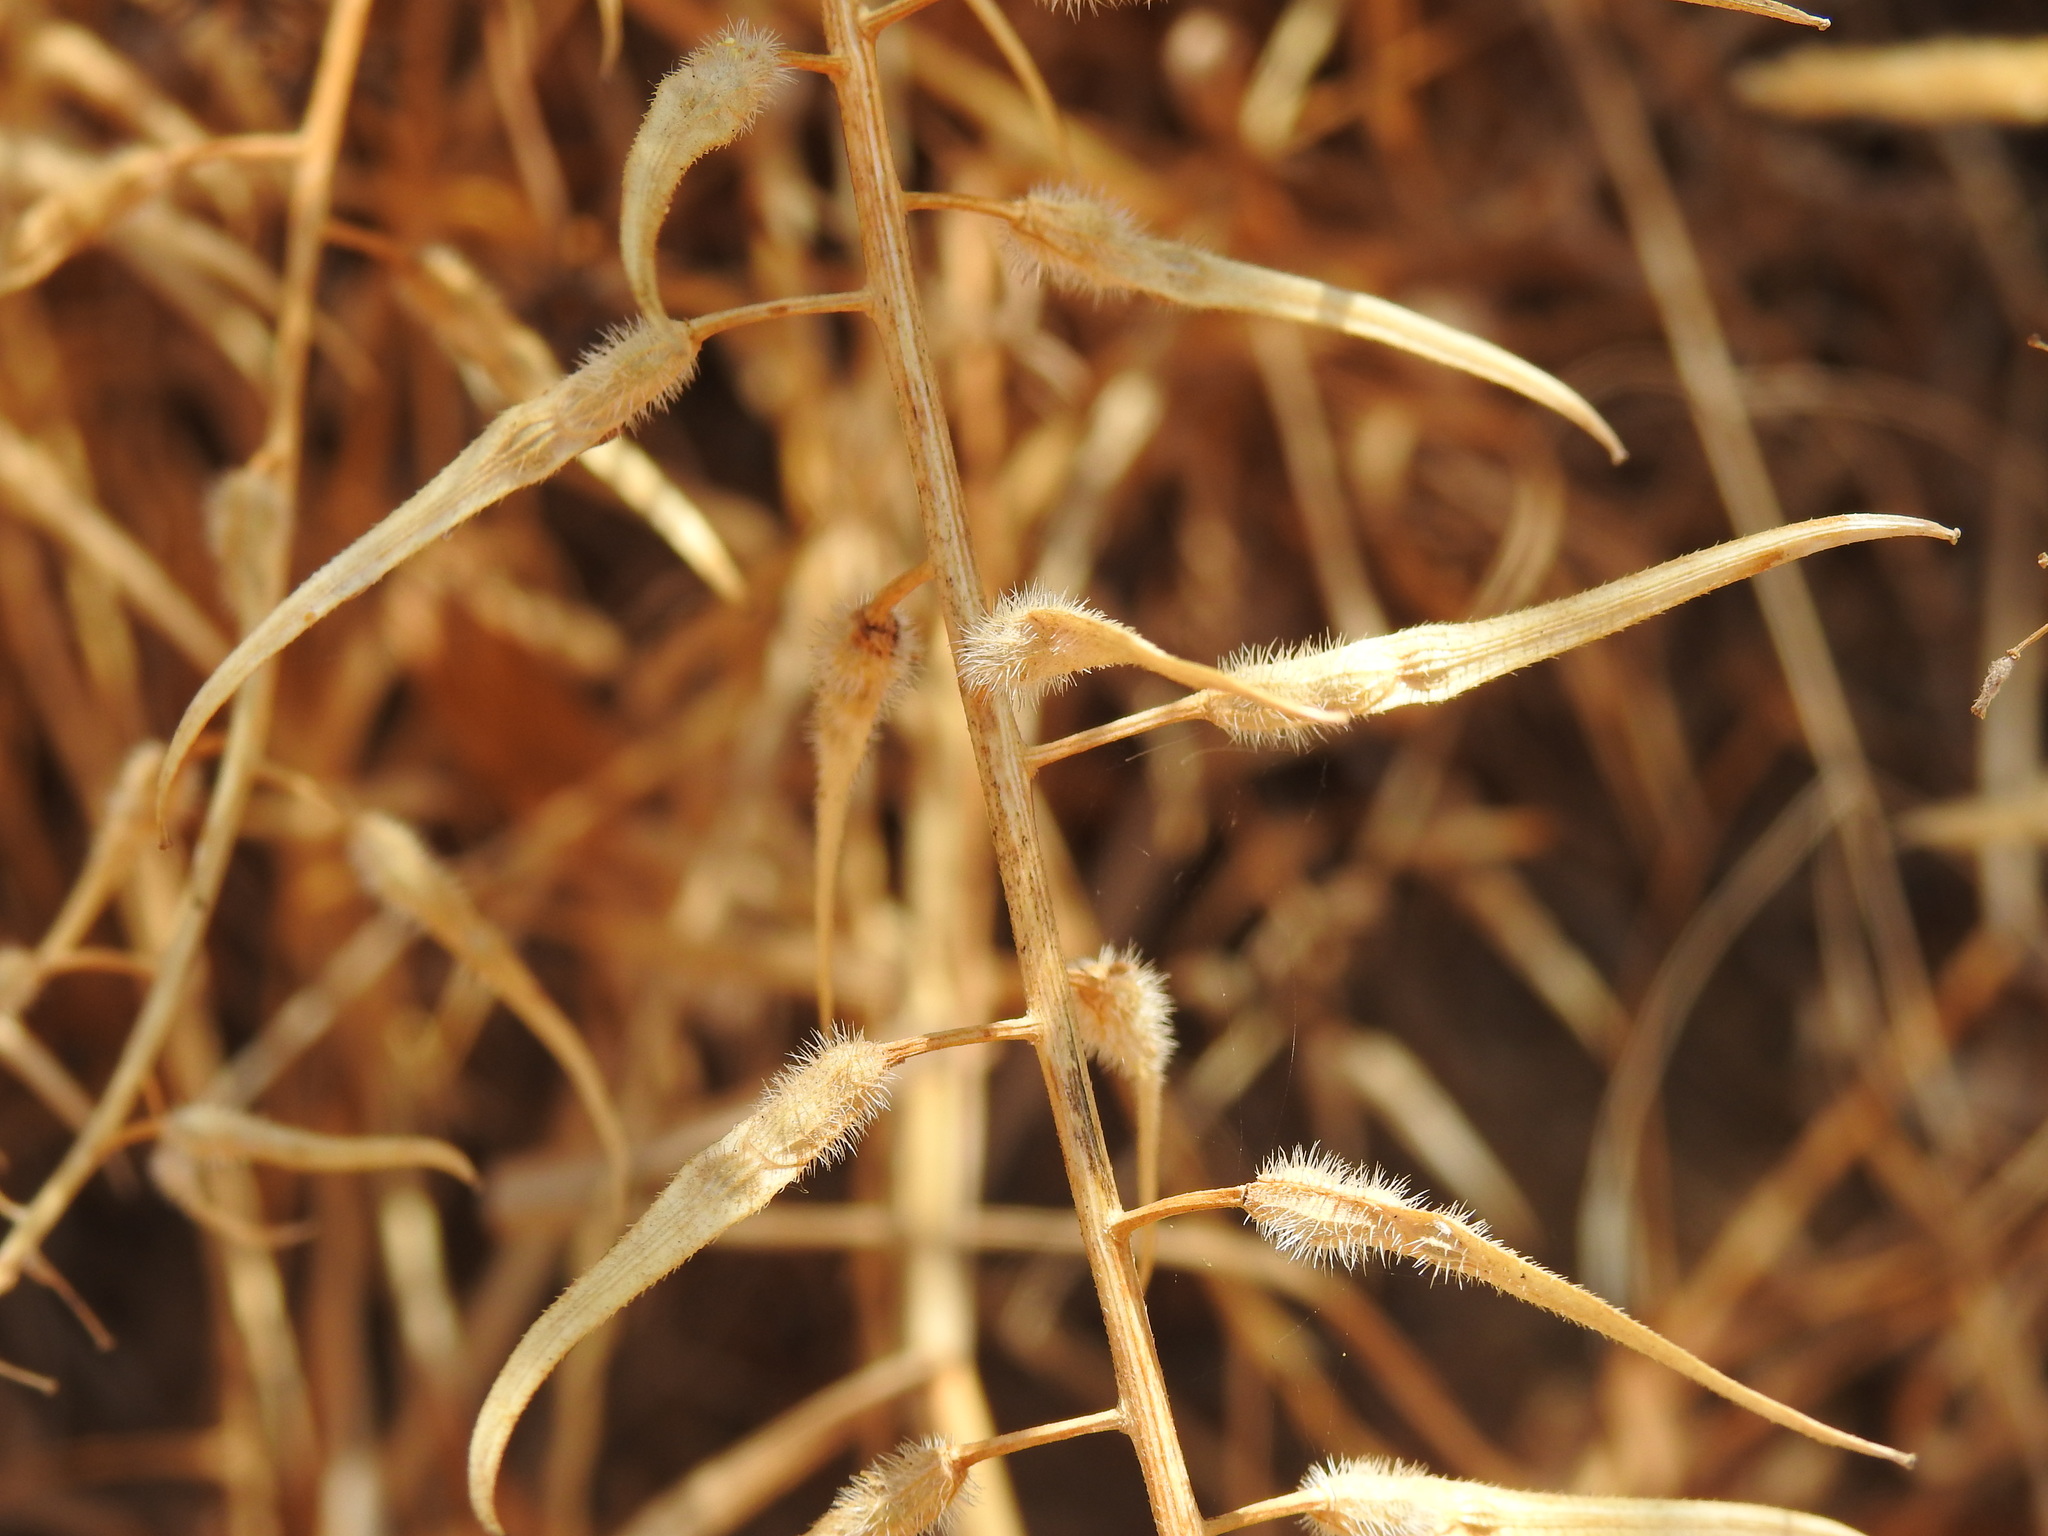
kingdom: Plantae
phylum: Tracheophyta
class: Magnoliopsida
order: Brassicales
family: Brassicaceae
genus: Sinapis
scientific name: Sinapis alba
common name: White mustard
